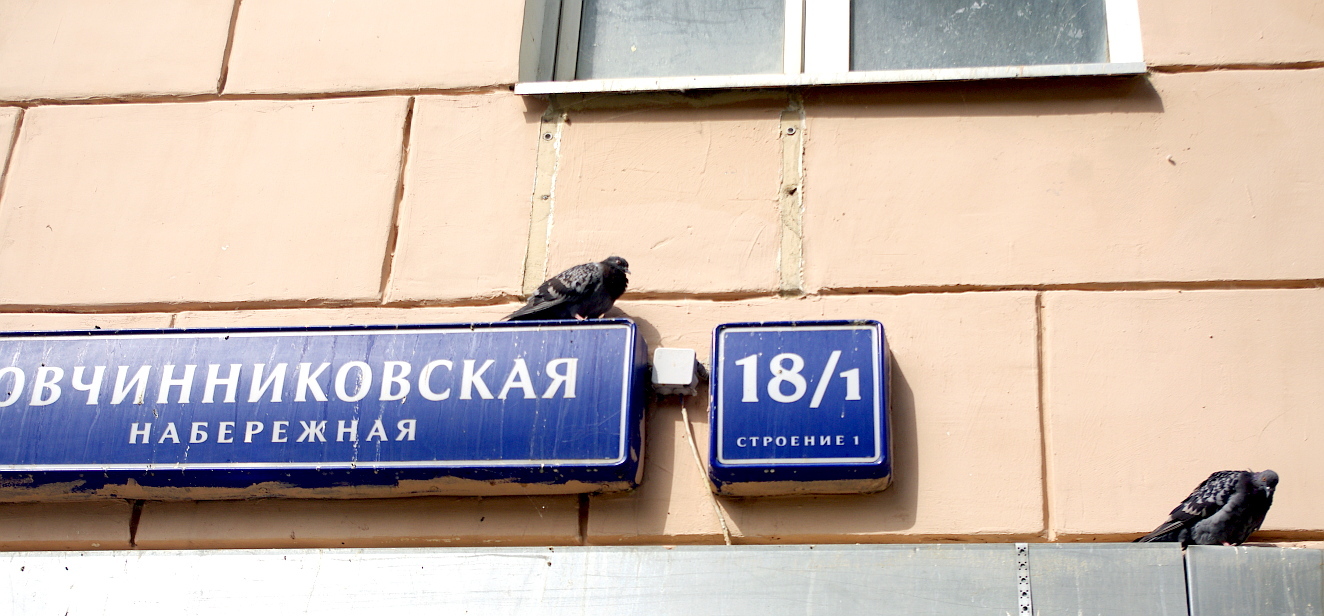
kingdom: Animalia
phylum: Chordata
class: Aves
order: Columbiformes
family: Columbidae
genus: Columba
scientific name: Columba livia
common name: Rock pigeon
